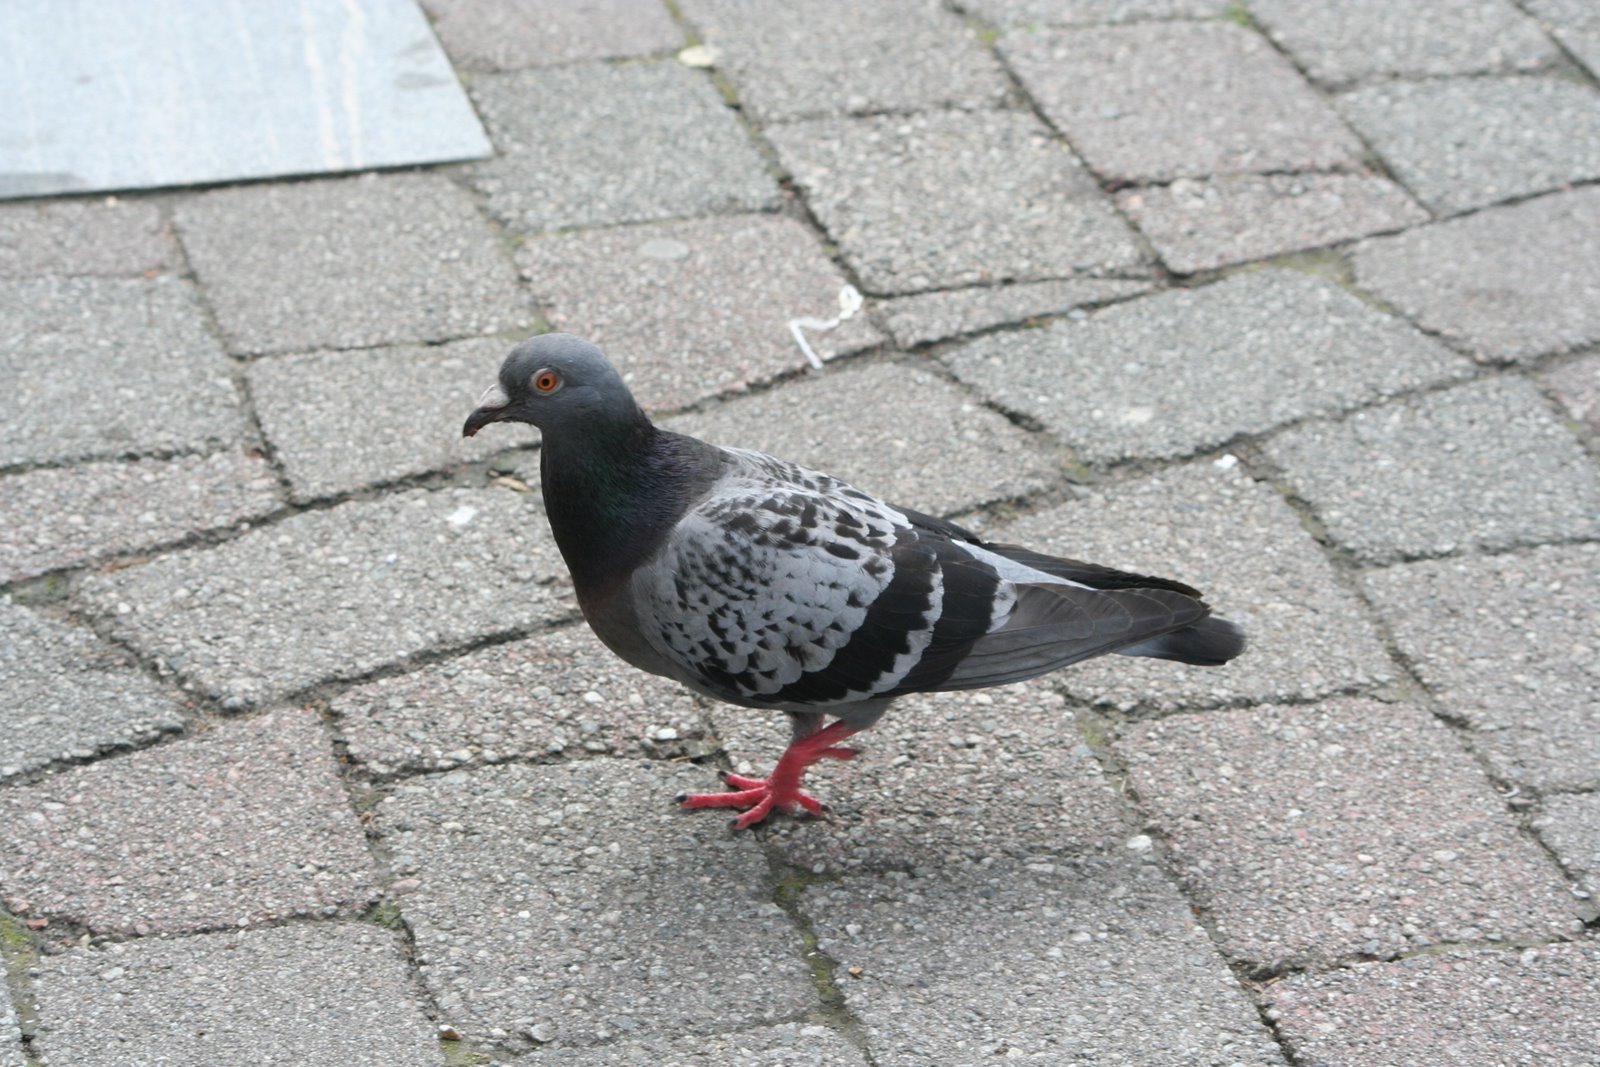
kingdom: Animalia
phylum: Chordata
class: Aves
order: Columbiformes
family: Columbidae
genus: Columba
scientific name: Columba livia
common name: Rock pigeon
